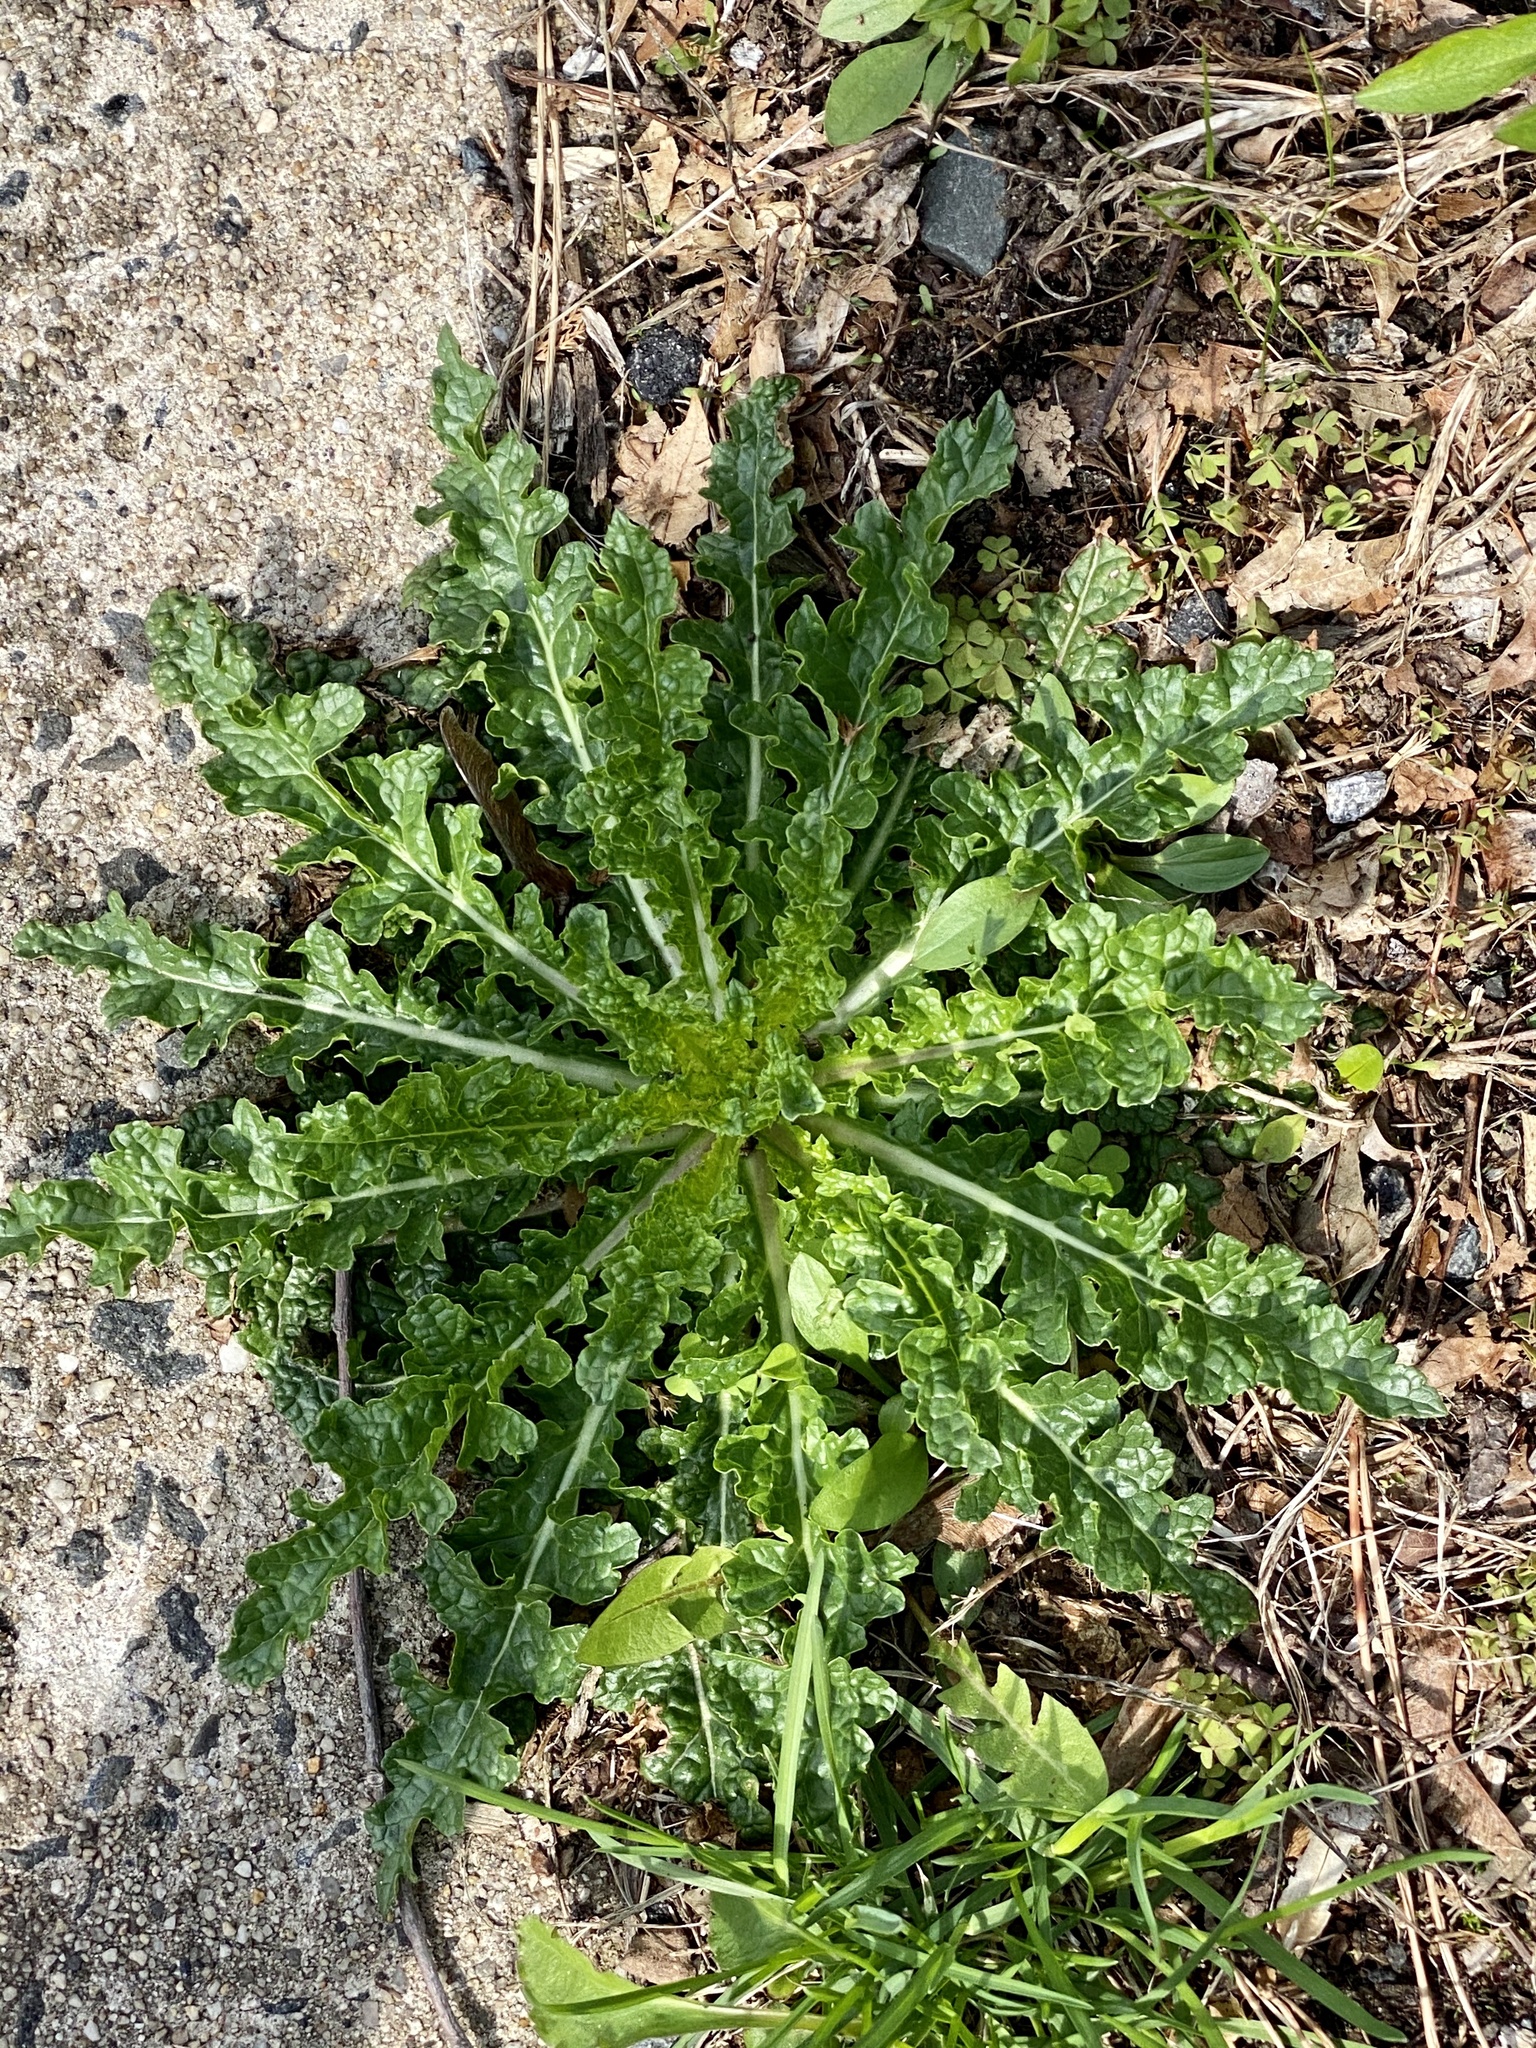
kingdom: Plantae
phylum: Tracheophyta
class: Magnoliopsida
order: Lamiales
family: Scrophulariaceae
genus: Verbascum
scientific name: Verbascum blattaria
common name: Moth mullein
